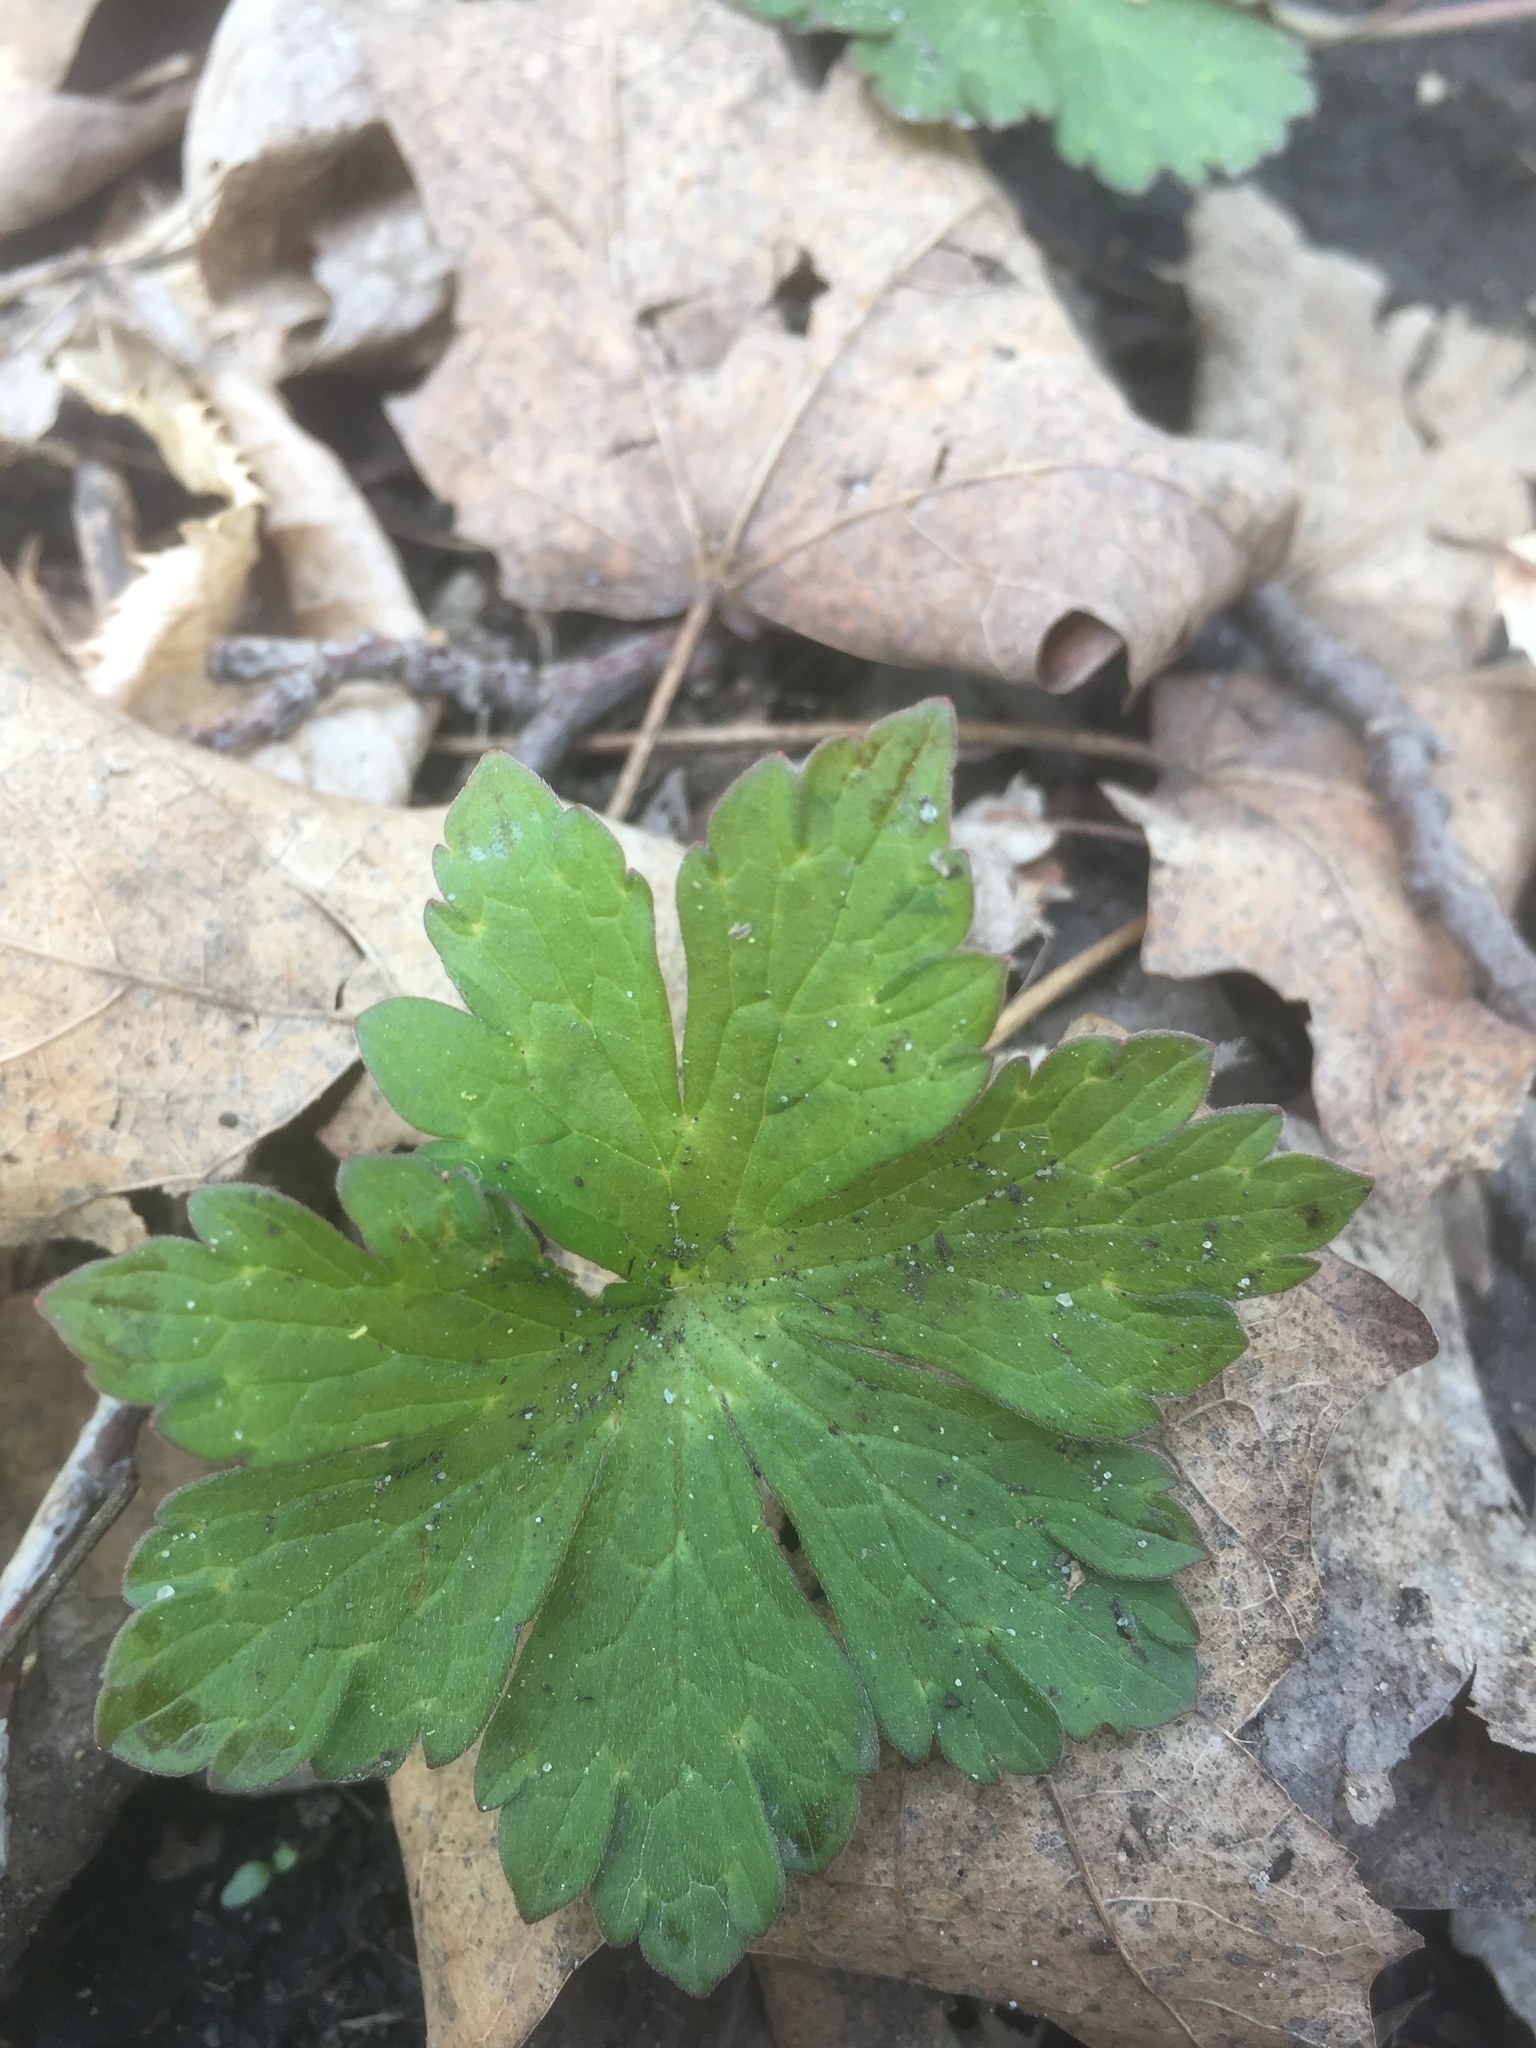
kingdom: Plantae
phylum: Tracheophyta
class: Magnoliopsida
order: Geraniales
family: Geraniaceae
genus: Geranium
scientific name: Geranium maculatum
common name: Spotted geranium
